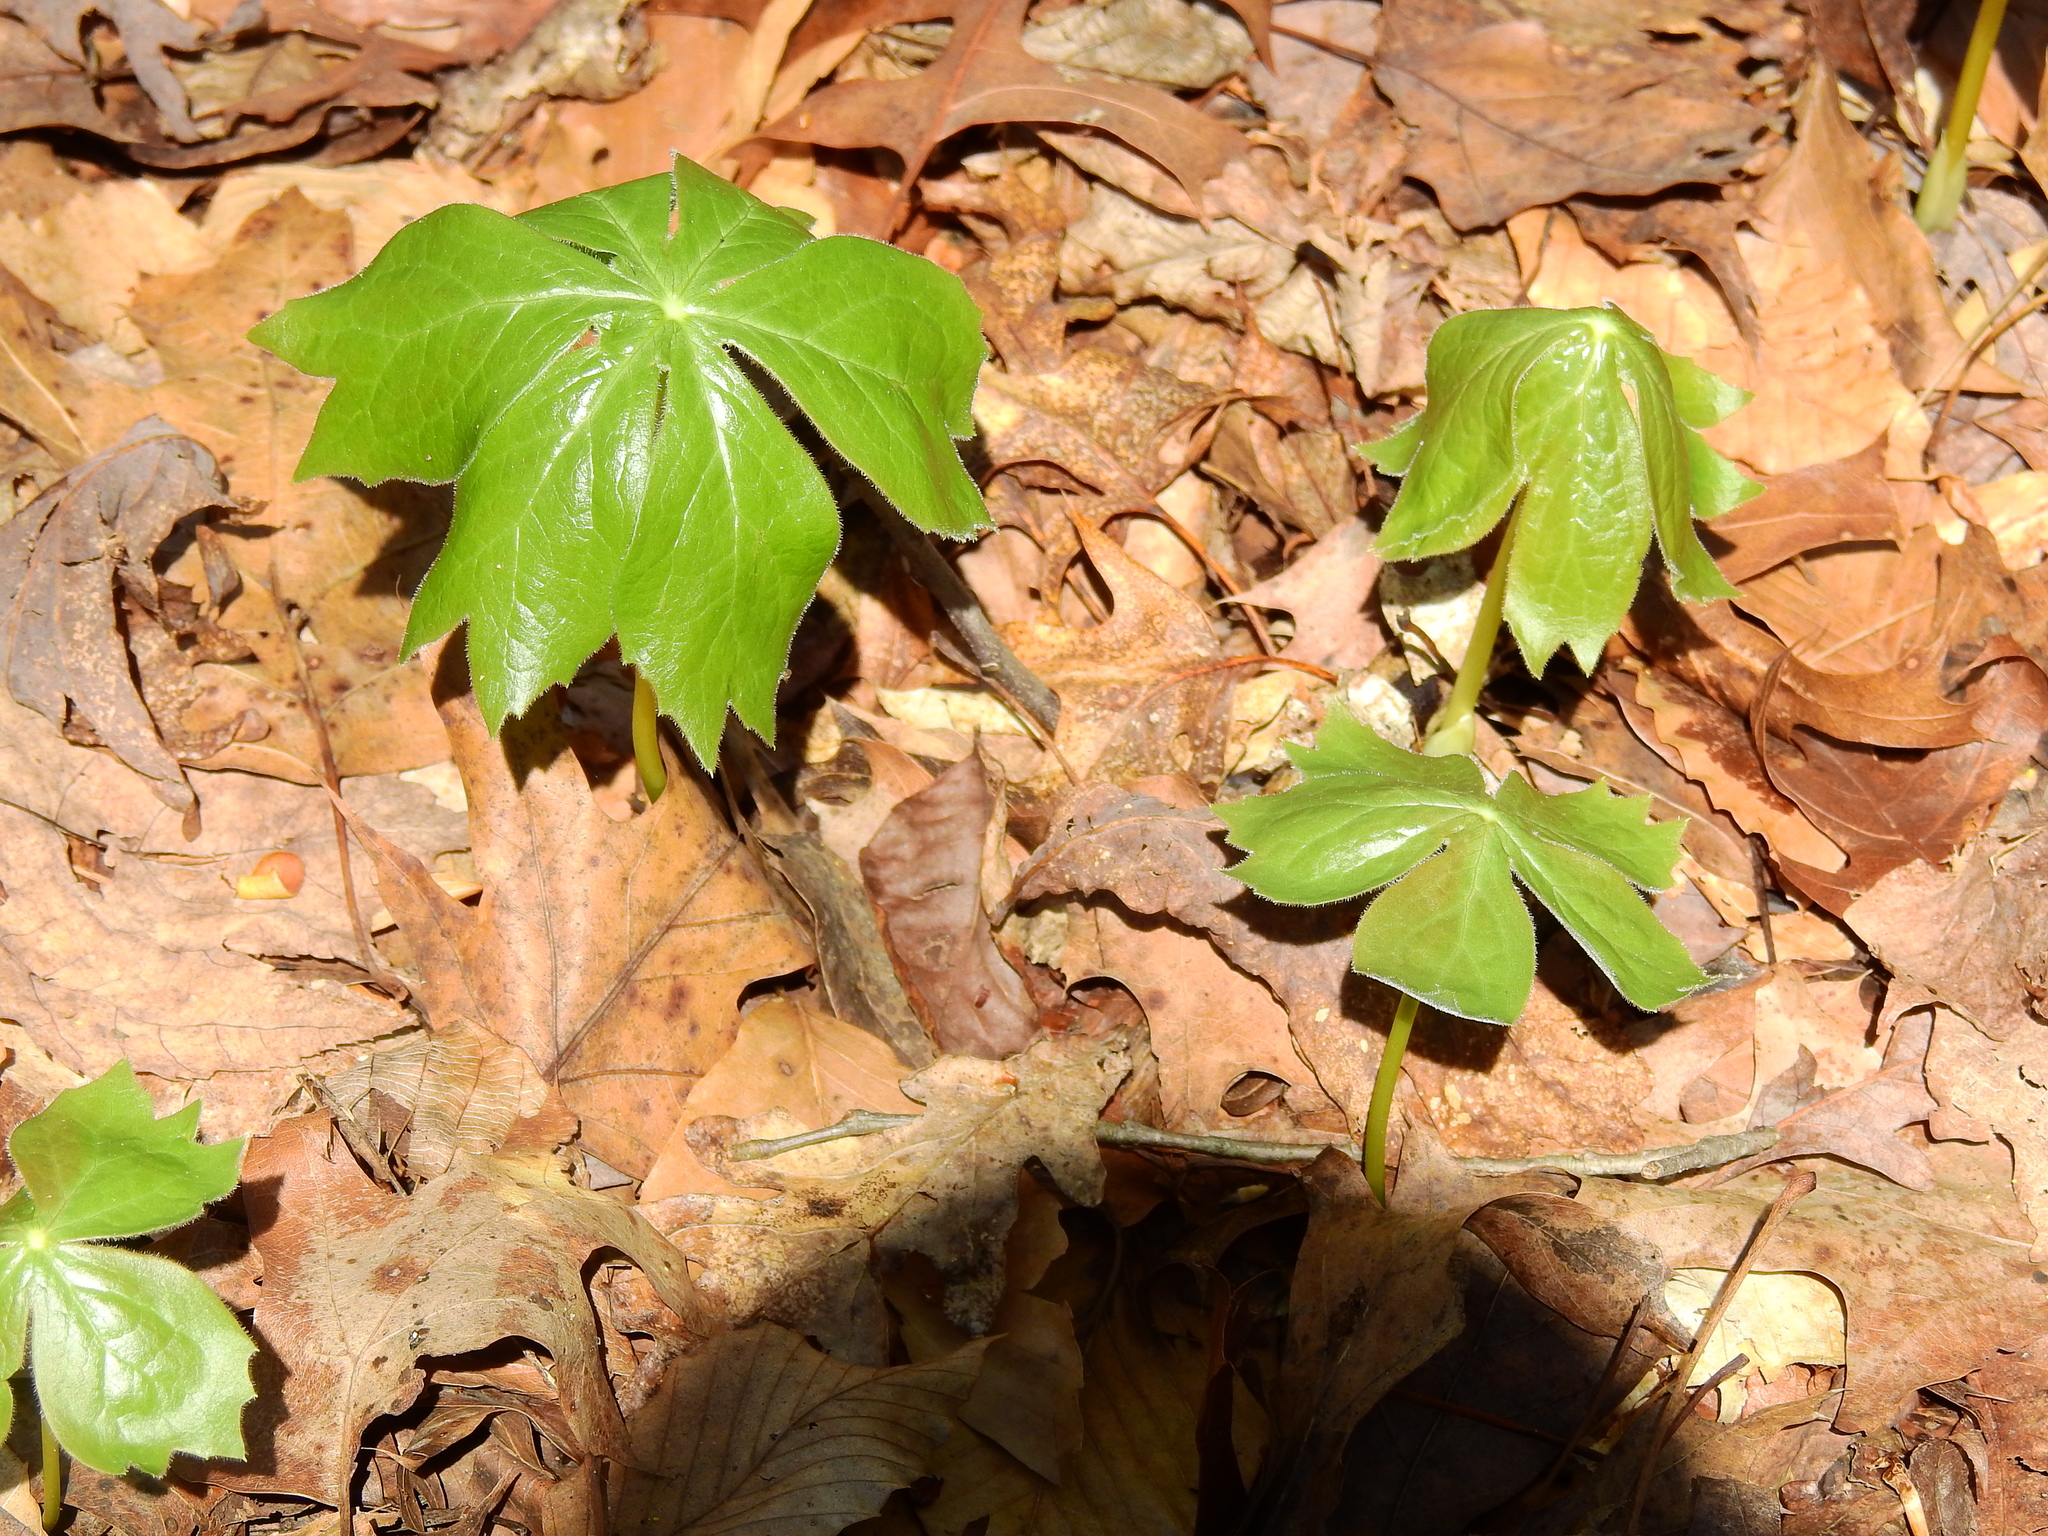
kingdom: Plantae
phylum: Tracheophyta
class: Magnoliopsida
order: Ranunculales
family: Berberidaceae
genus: Podophyllum
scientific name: Podophyllum peltatum
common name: Wild mandrake
